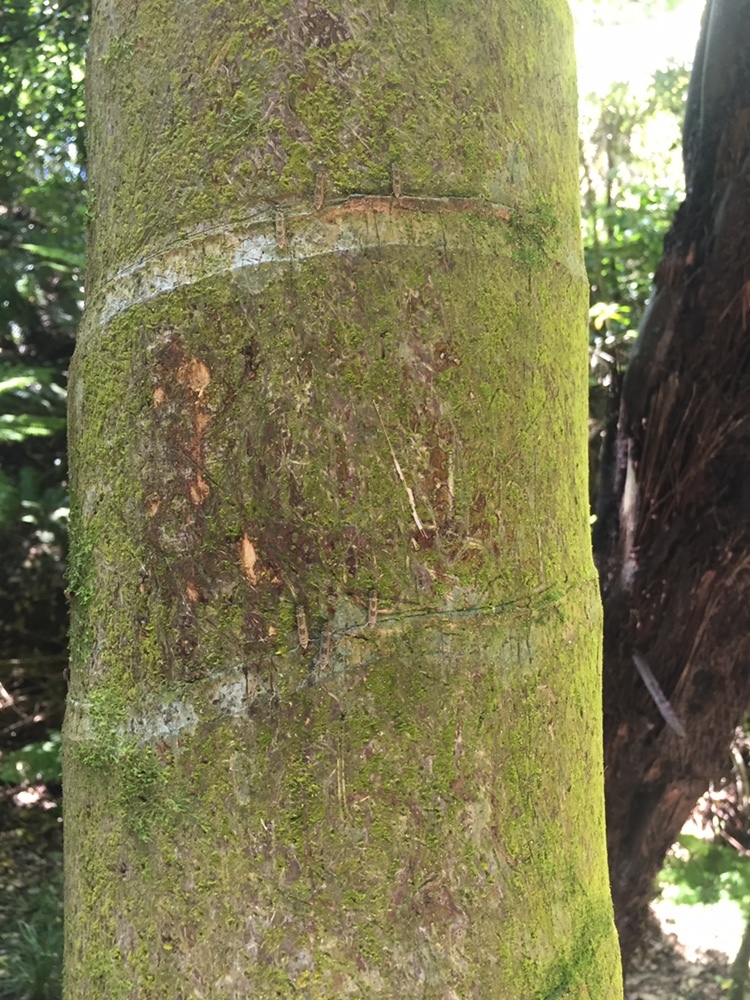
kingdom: Animalia
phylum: Arthropoda
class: Insecta
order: Lepidoptera
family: Plutellidae
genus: Doxophyrtis
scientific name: Doxophyrtis hydrocosma
